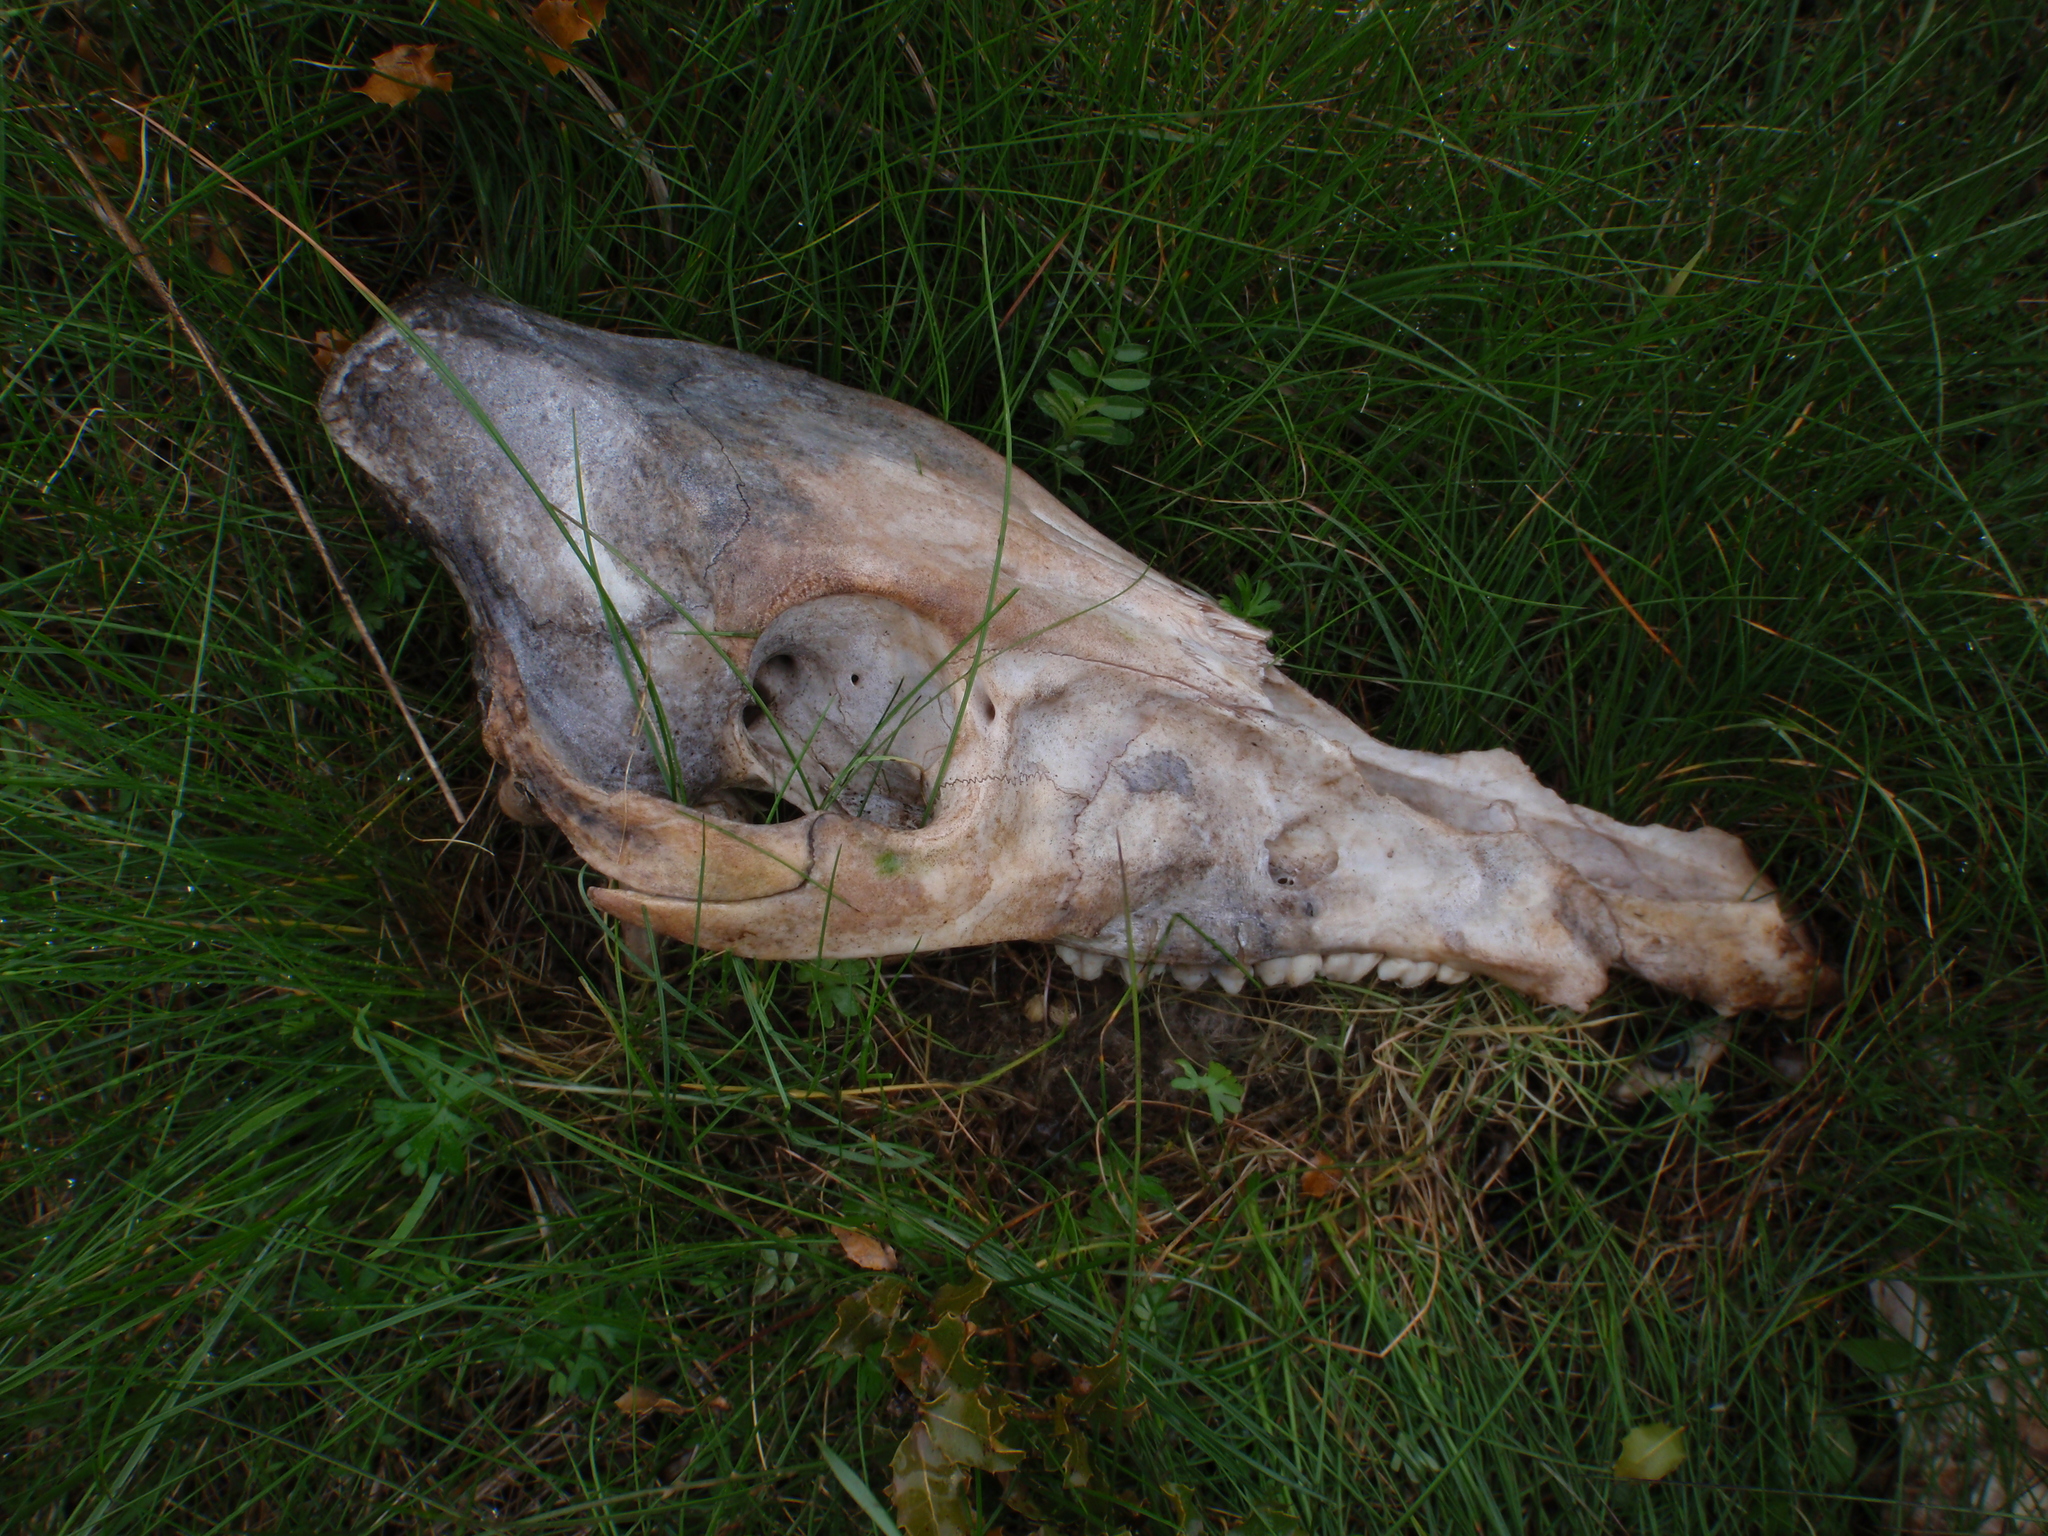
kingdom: Animalia
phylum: Chordata
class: Mammalia
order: Artiodactyla
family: Suidae
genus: Sus
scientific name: Sus scrofa
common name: Wild boar
